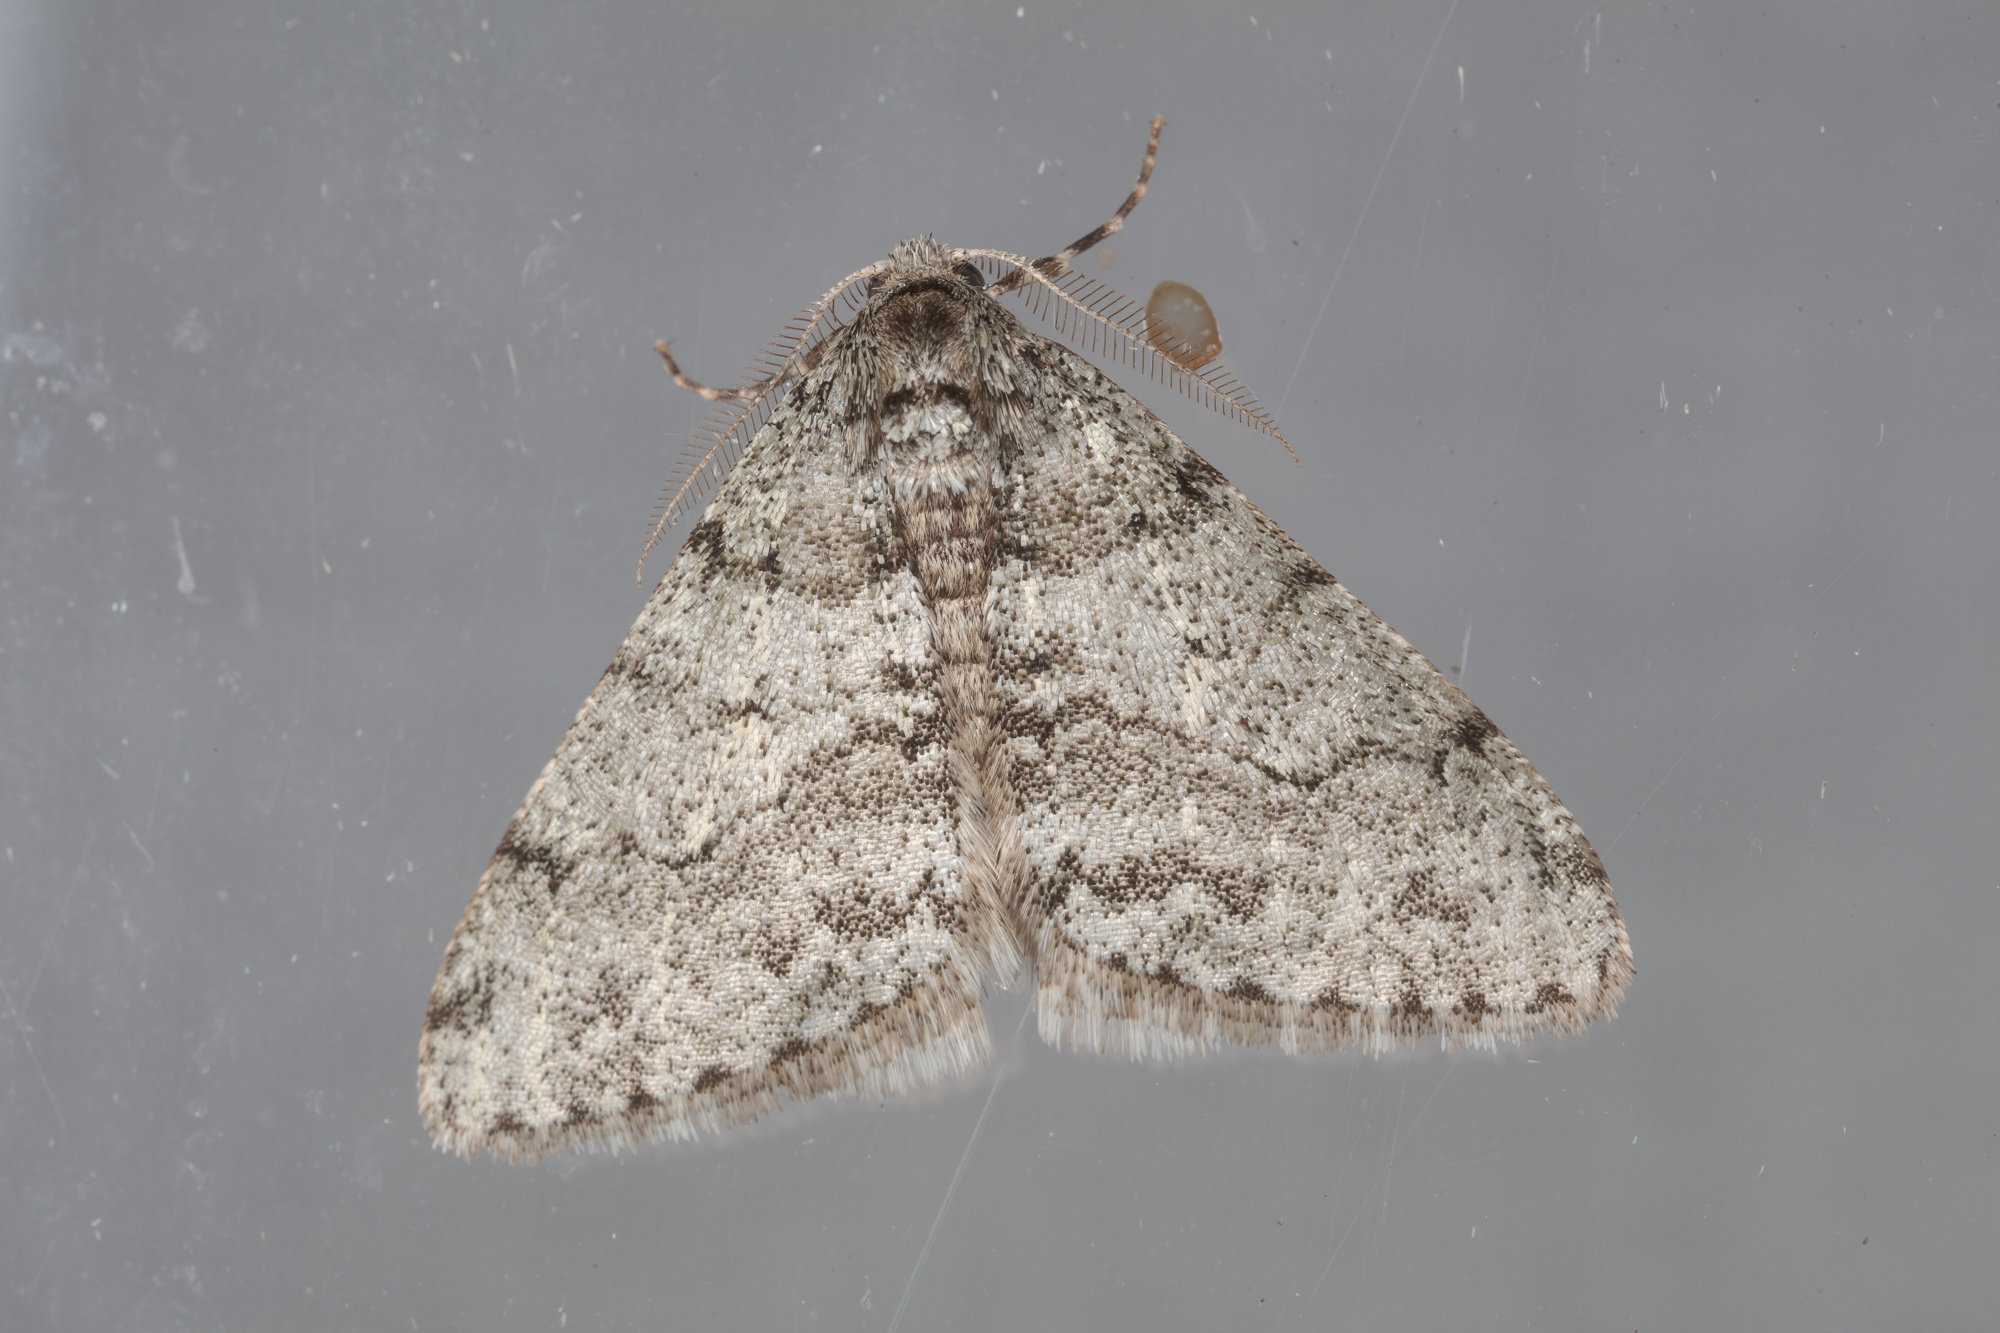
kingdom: Animalia
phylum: Arthropoda
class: Insecta
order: Lepidoptera
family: Geometridae
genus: Phigalia
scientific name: Phigalia strigataria
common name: Small phigalia
